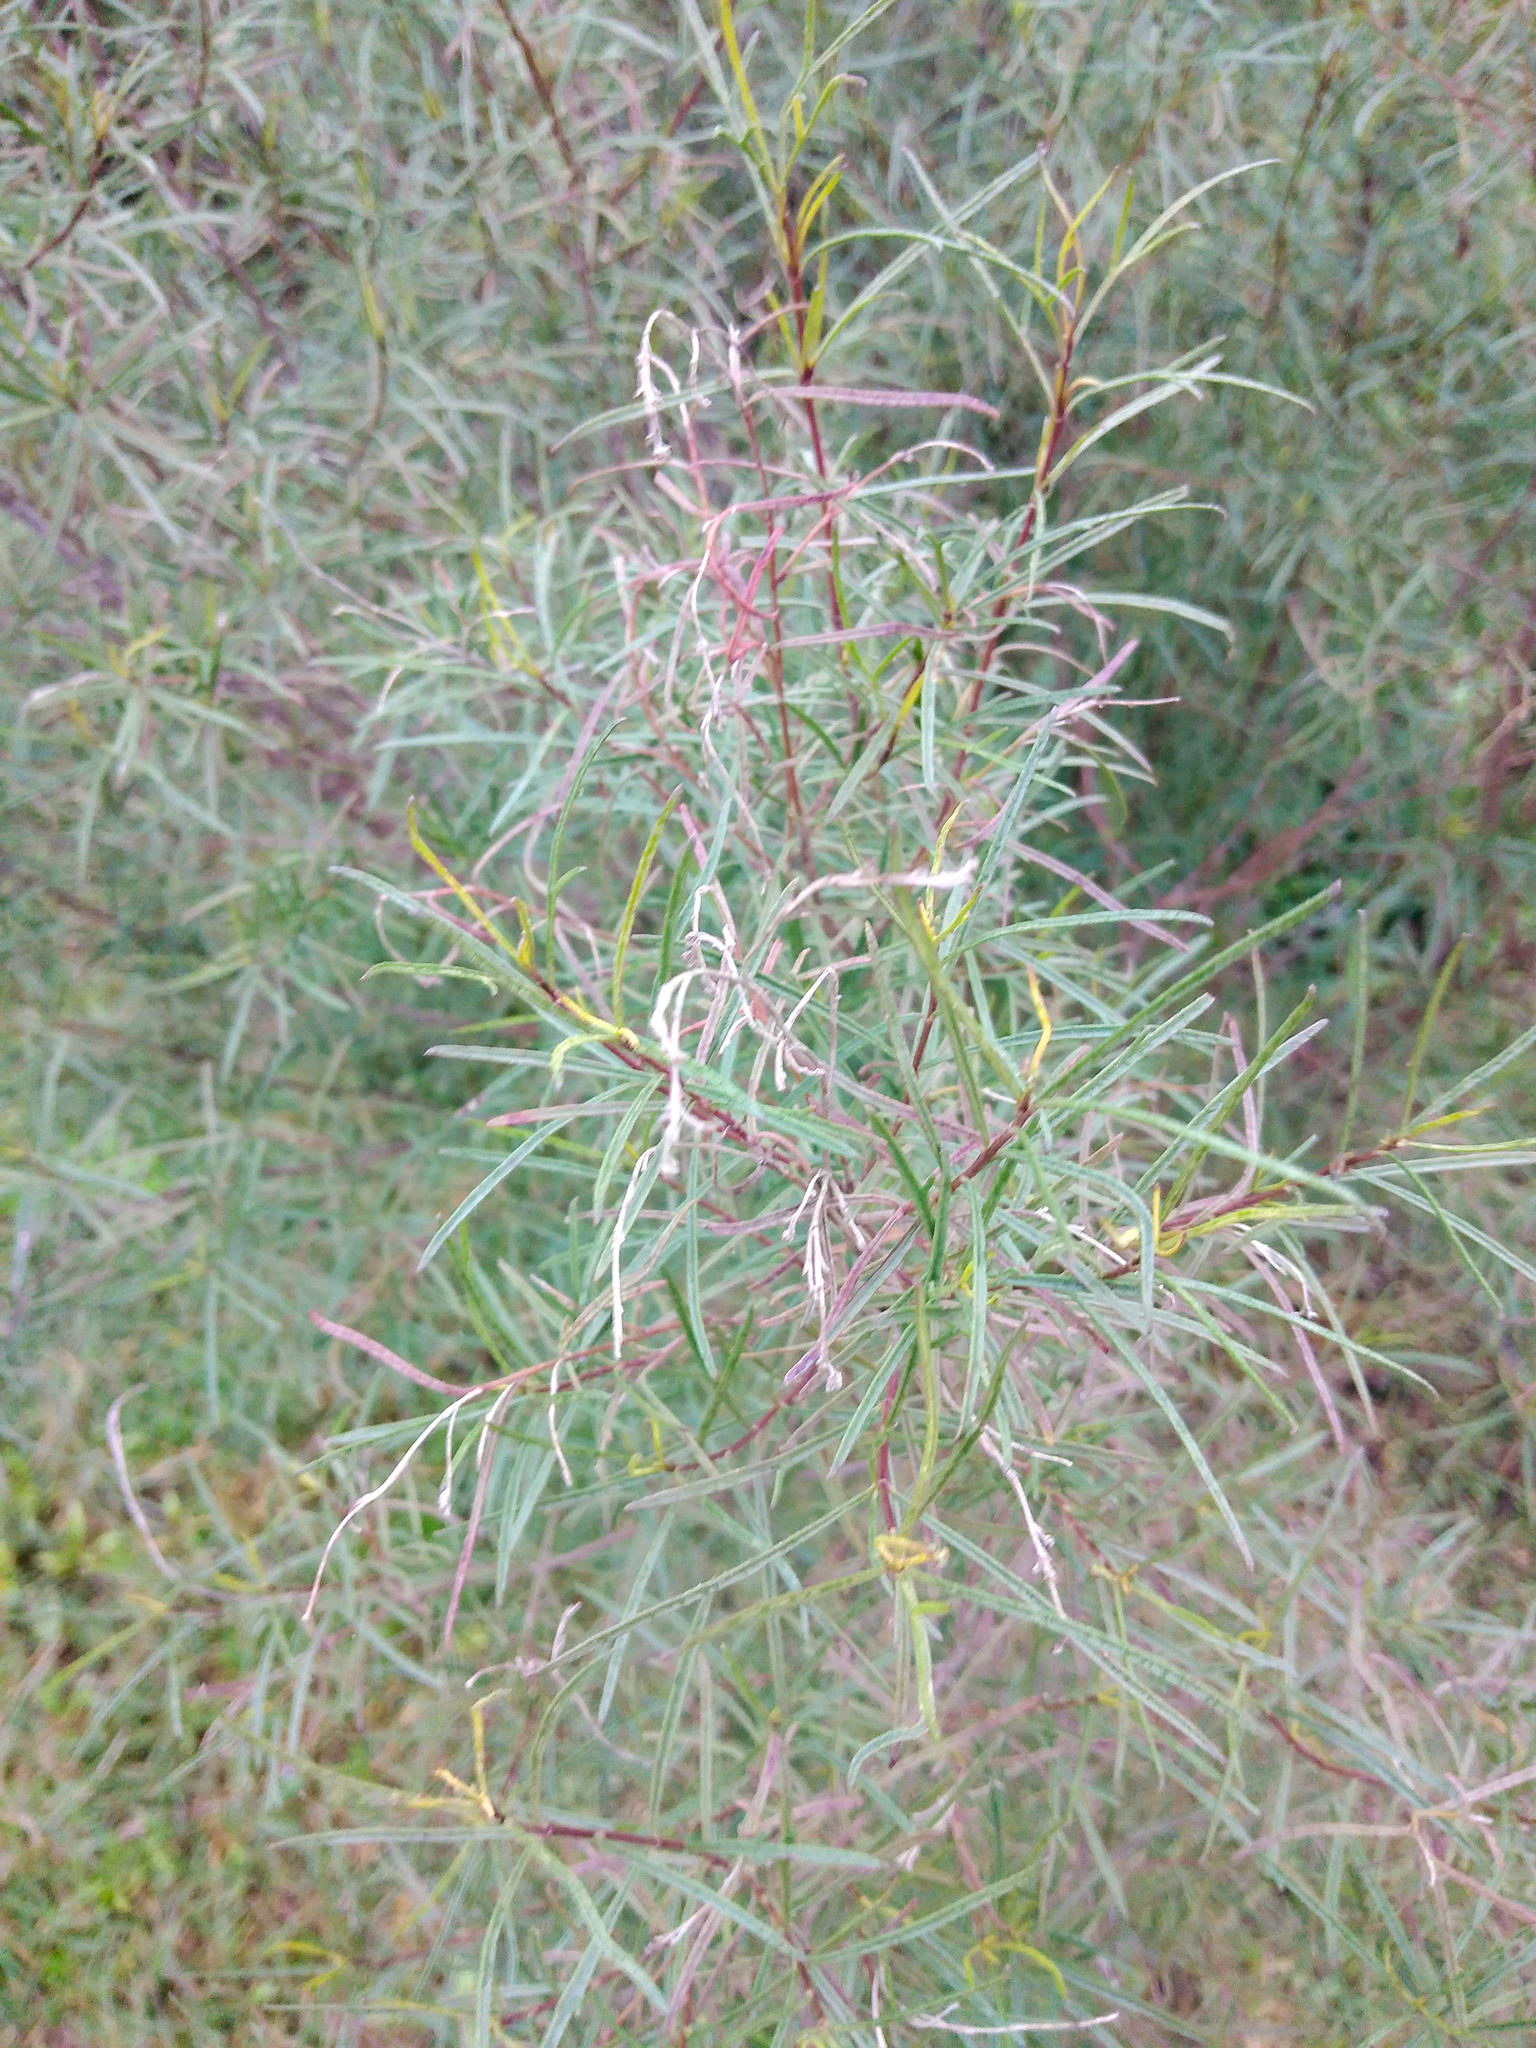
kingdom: Plantae
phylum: Tracheophyta
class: Magnoliopsida
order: Asterales
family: Asteraceae
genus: Acanthostyles
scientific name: Acanthostyles buniifolius
